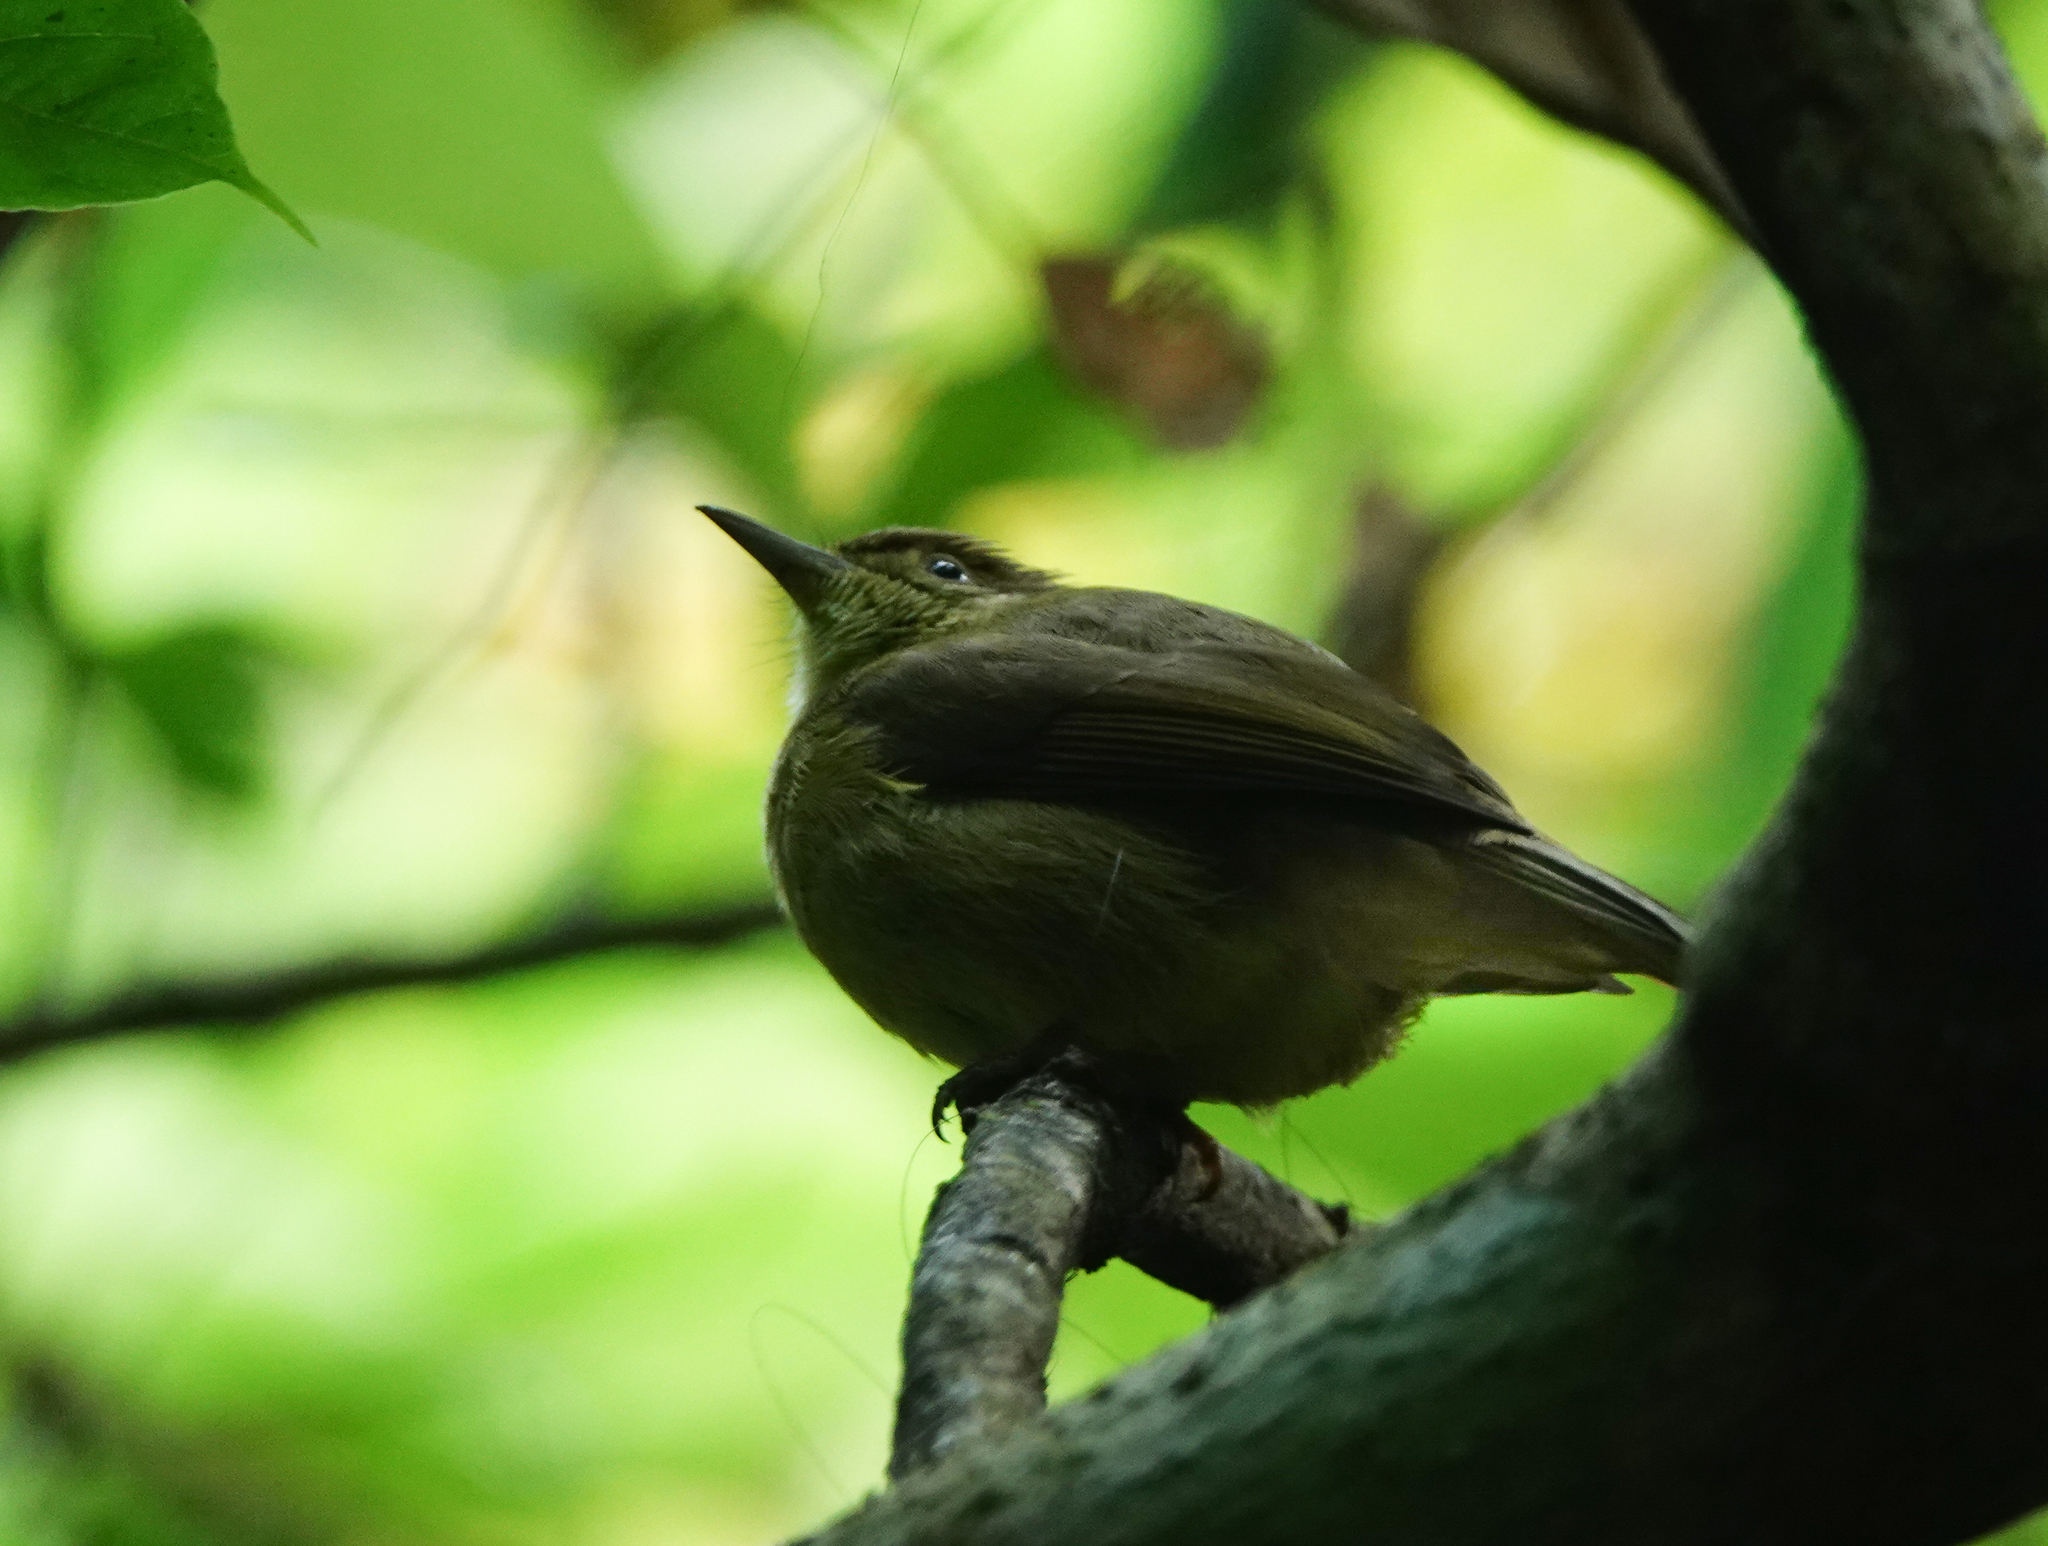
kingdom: Animalia
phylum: Chordata
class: Aves
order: Passeriformes
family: Pycnonotidae
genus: Iole
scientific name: Iole virescens
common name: Olive bulbul
